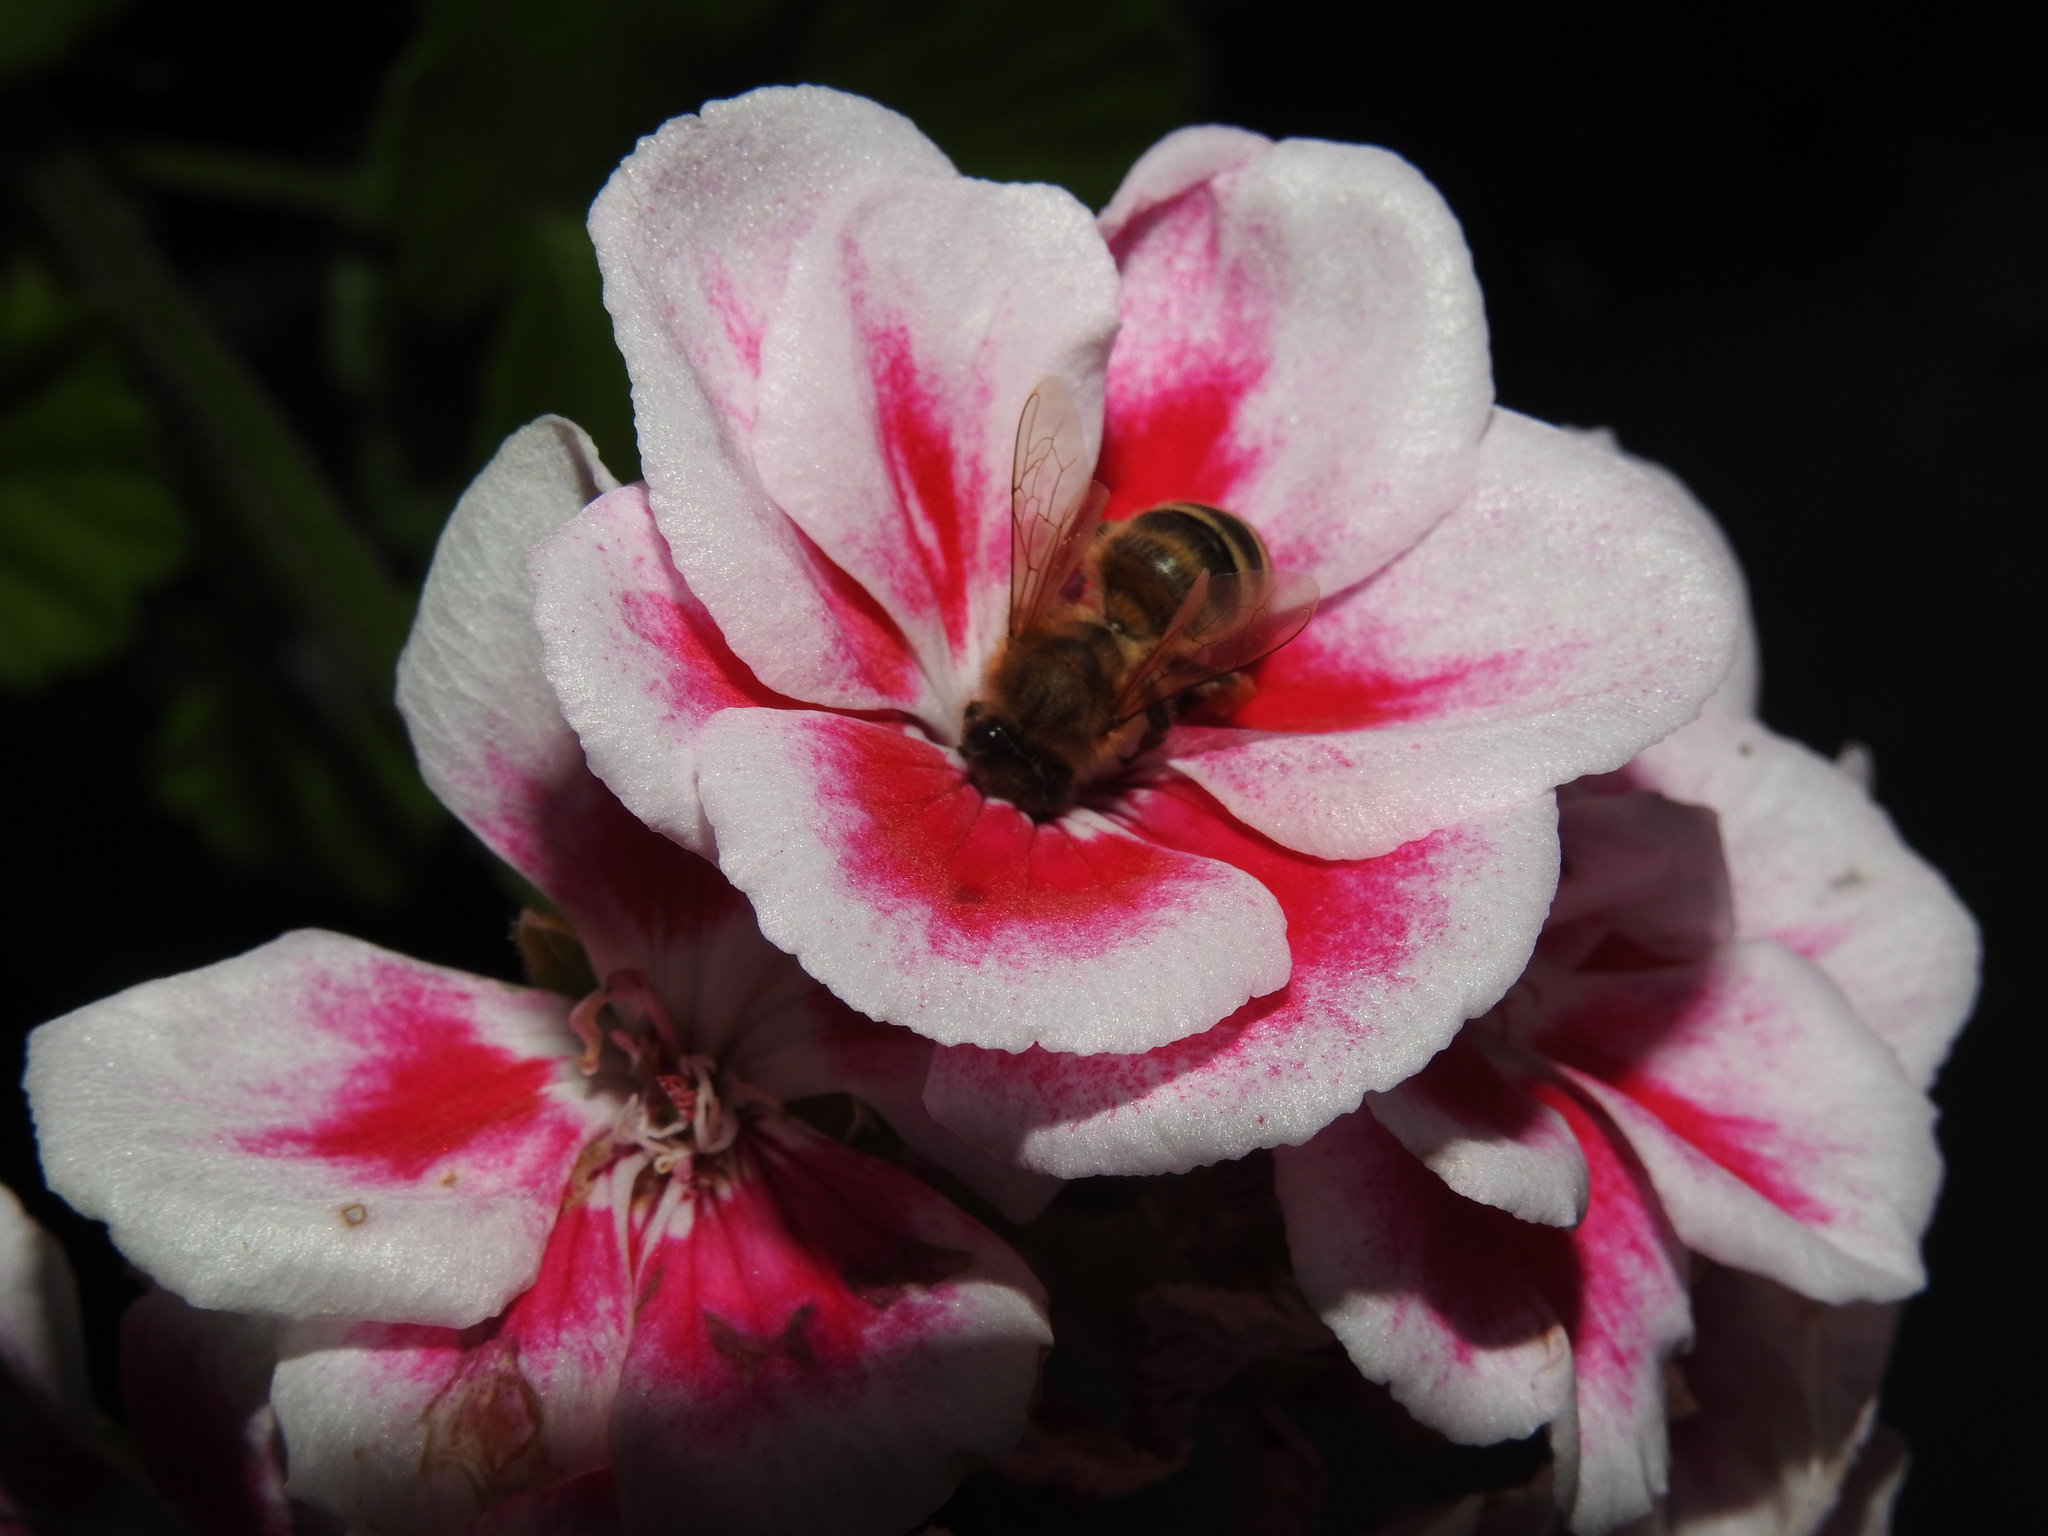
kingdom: Animalia
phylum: Arthropoda
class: Insecta
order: Hymenoptera
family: Apidae
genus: Apis
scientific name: Apis mellifera
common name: Honey bee
